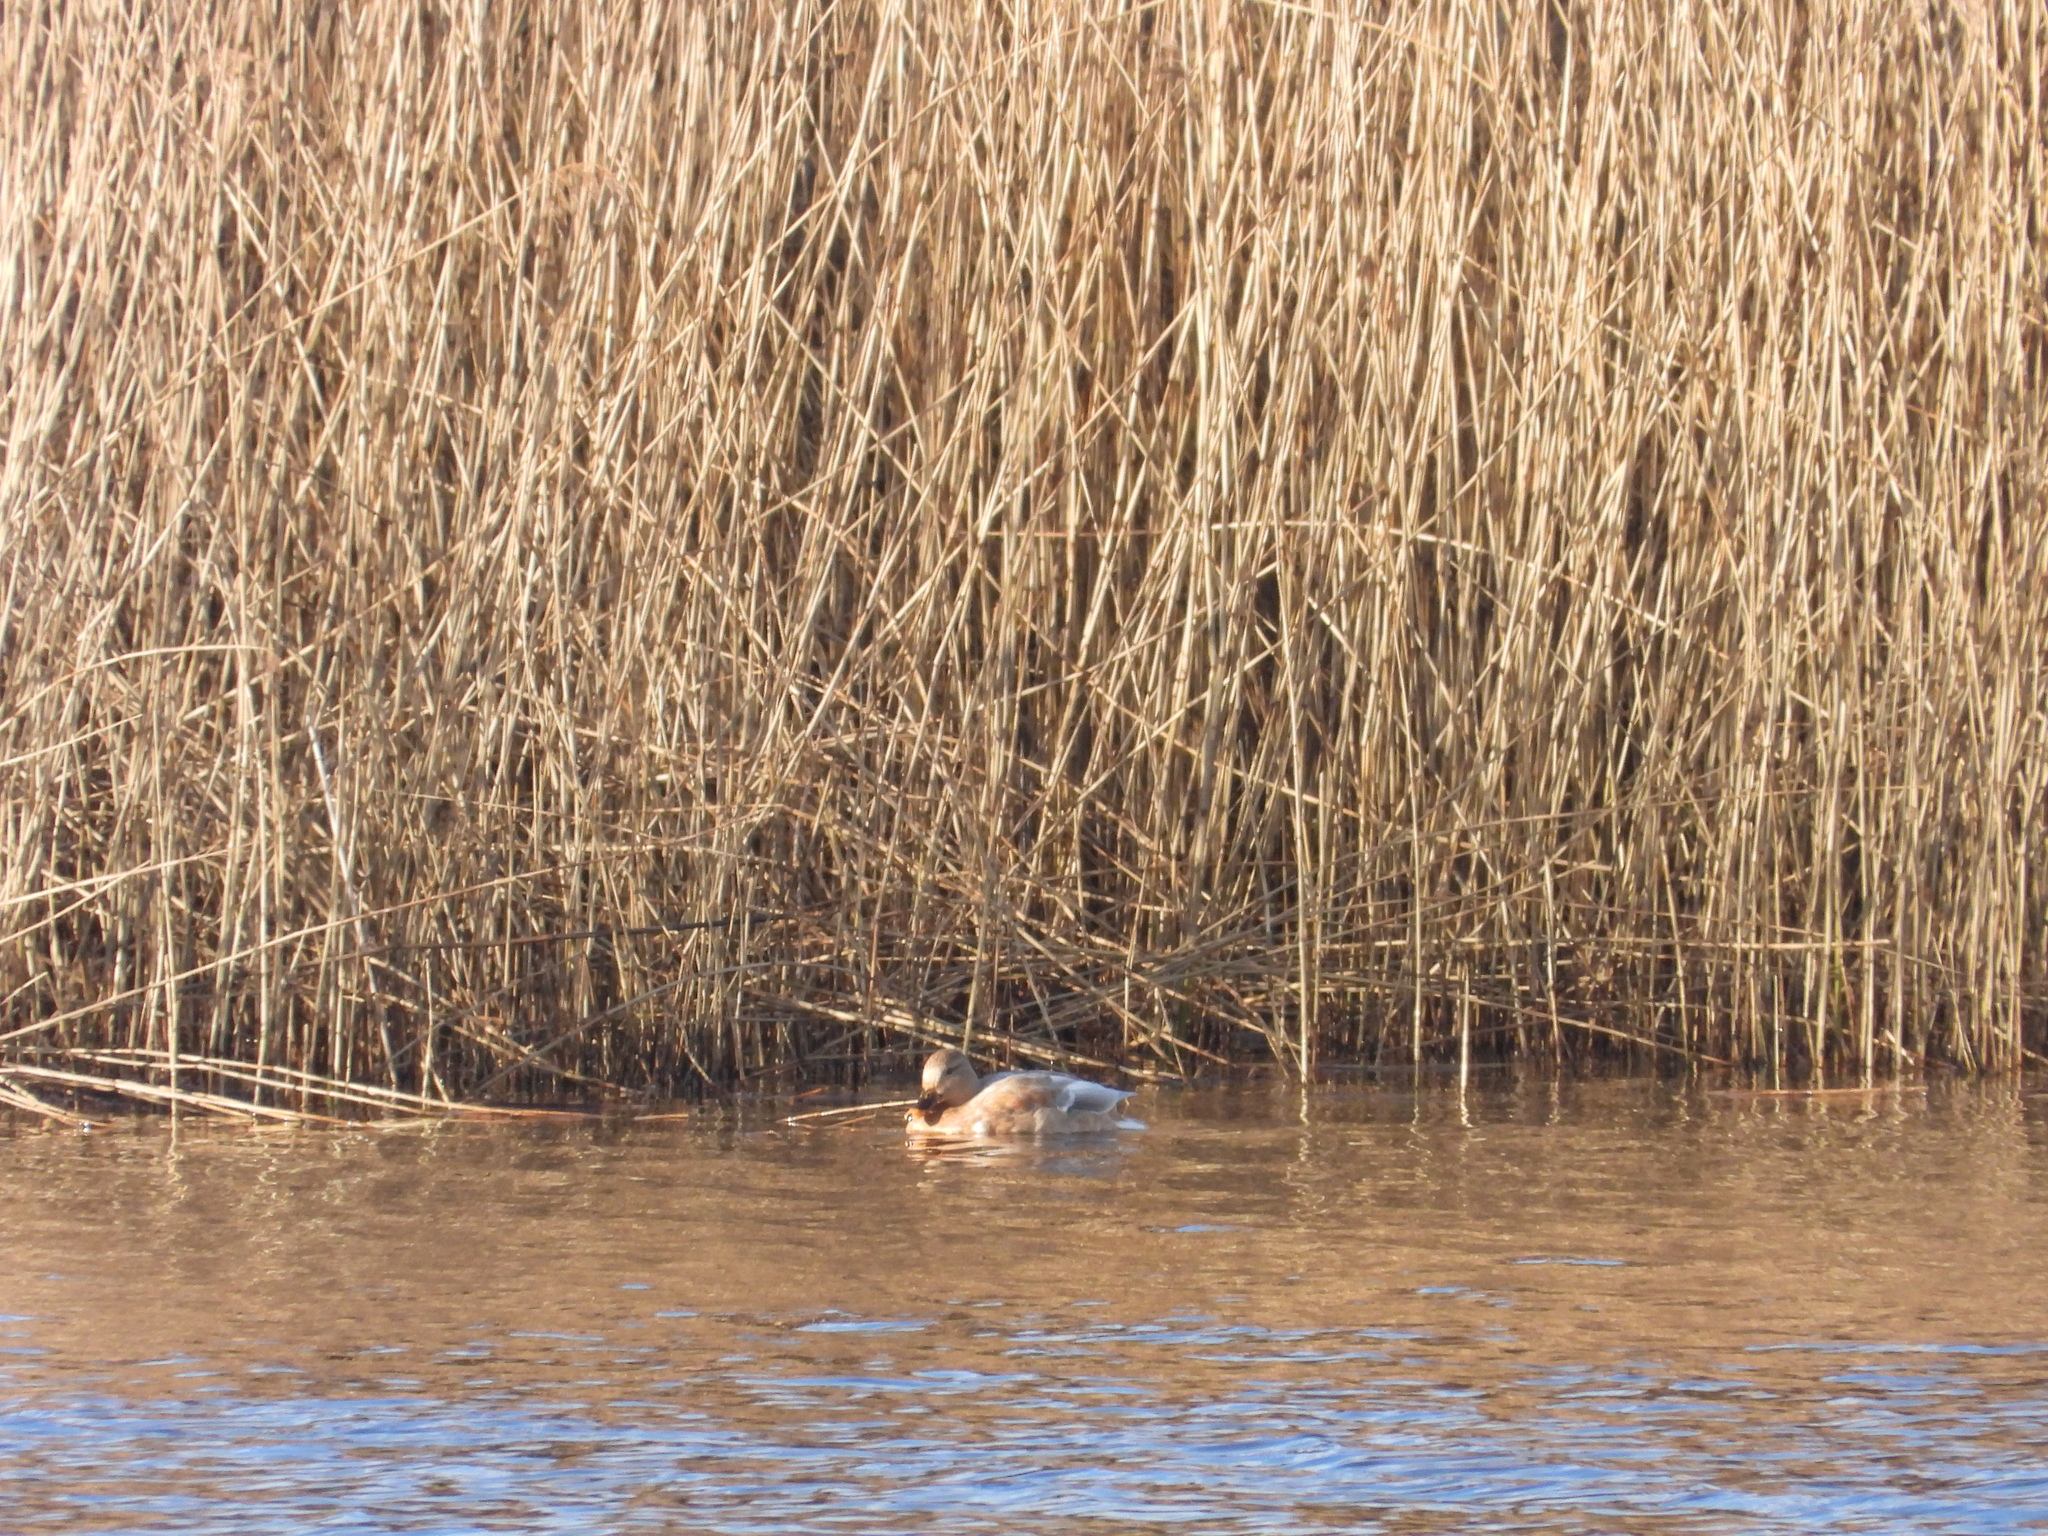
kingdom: Animalia
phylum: Chordata
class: Aves
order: Anseriformes
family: Anatidae
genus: Anas
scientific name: Anas platyrhynchos
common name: Mallard
